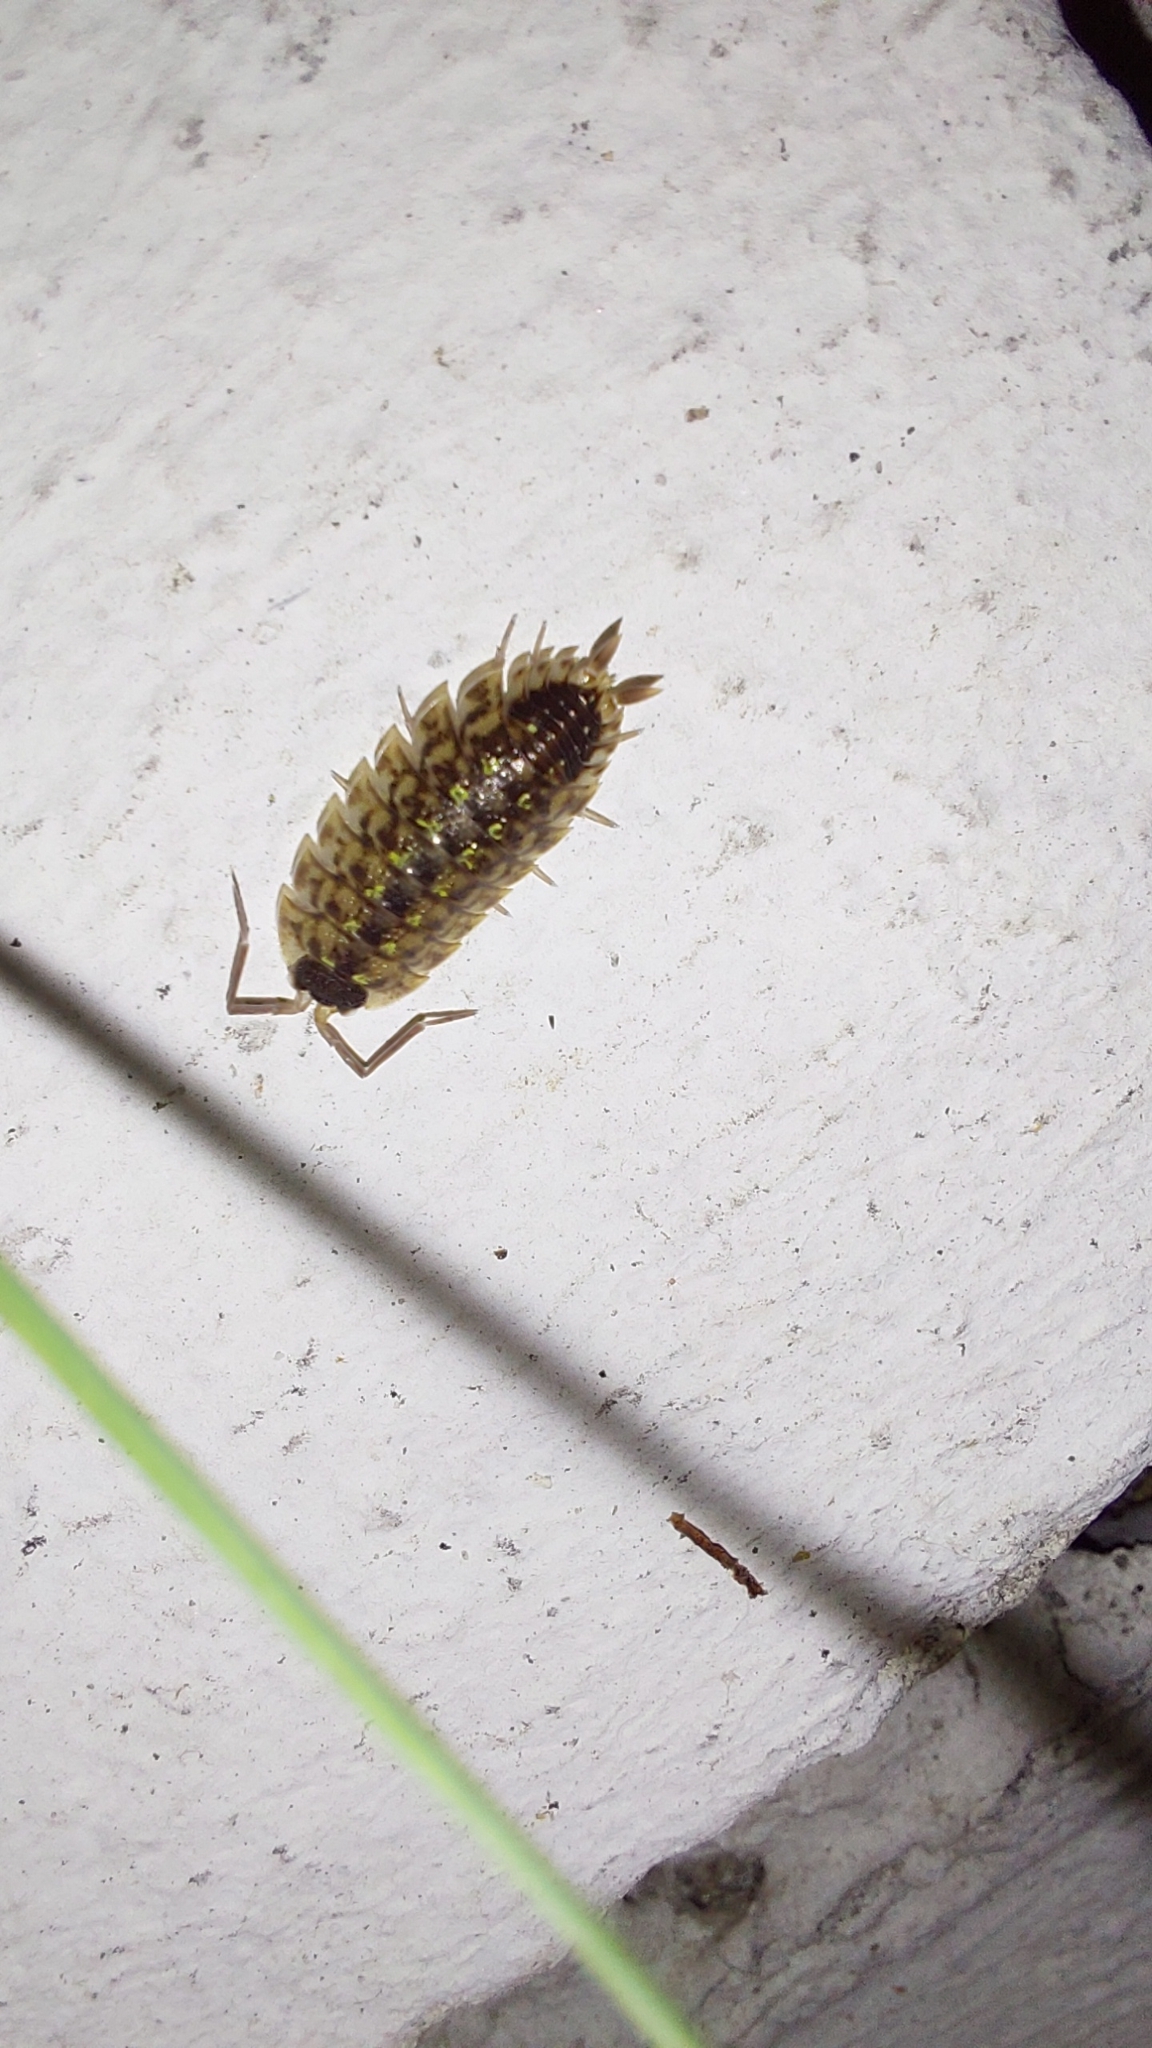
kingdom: Animalia
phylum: Arthropoda
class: Malacostraca
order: Isopoda
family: Porcellionidae
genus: Porcellio
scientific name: Porcellio spinicornis
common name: Painted woodlouse
